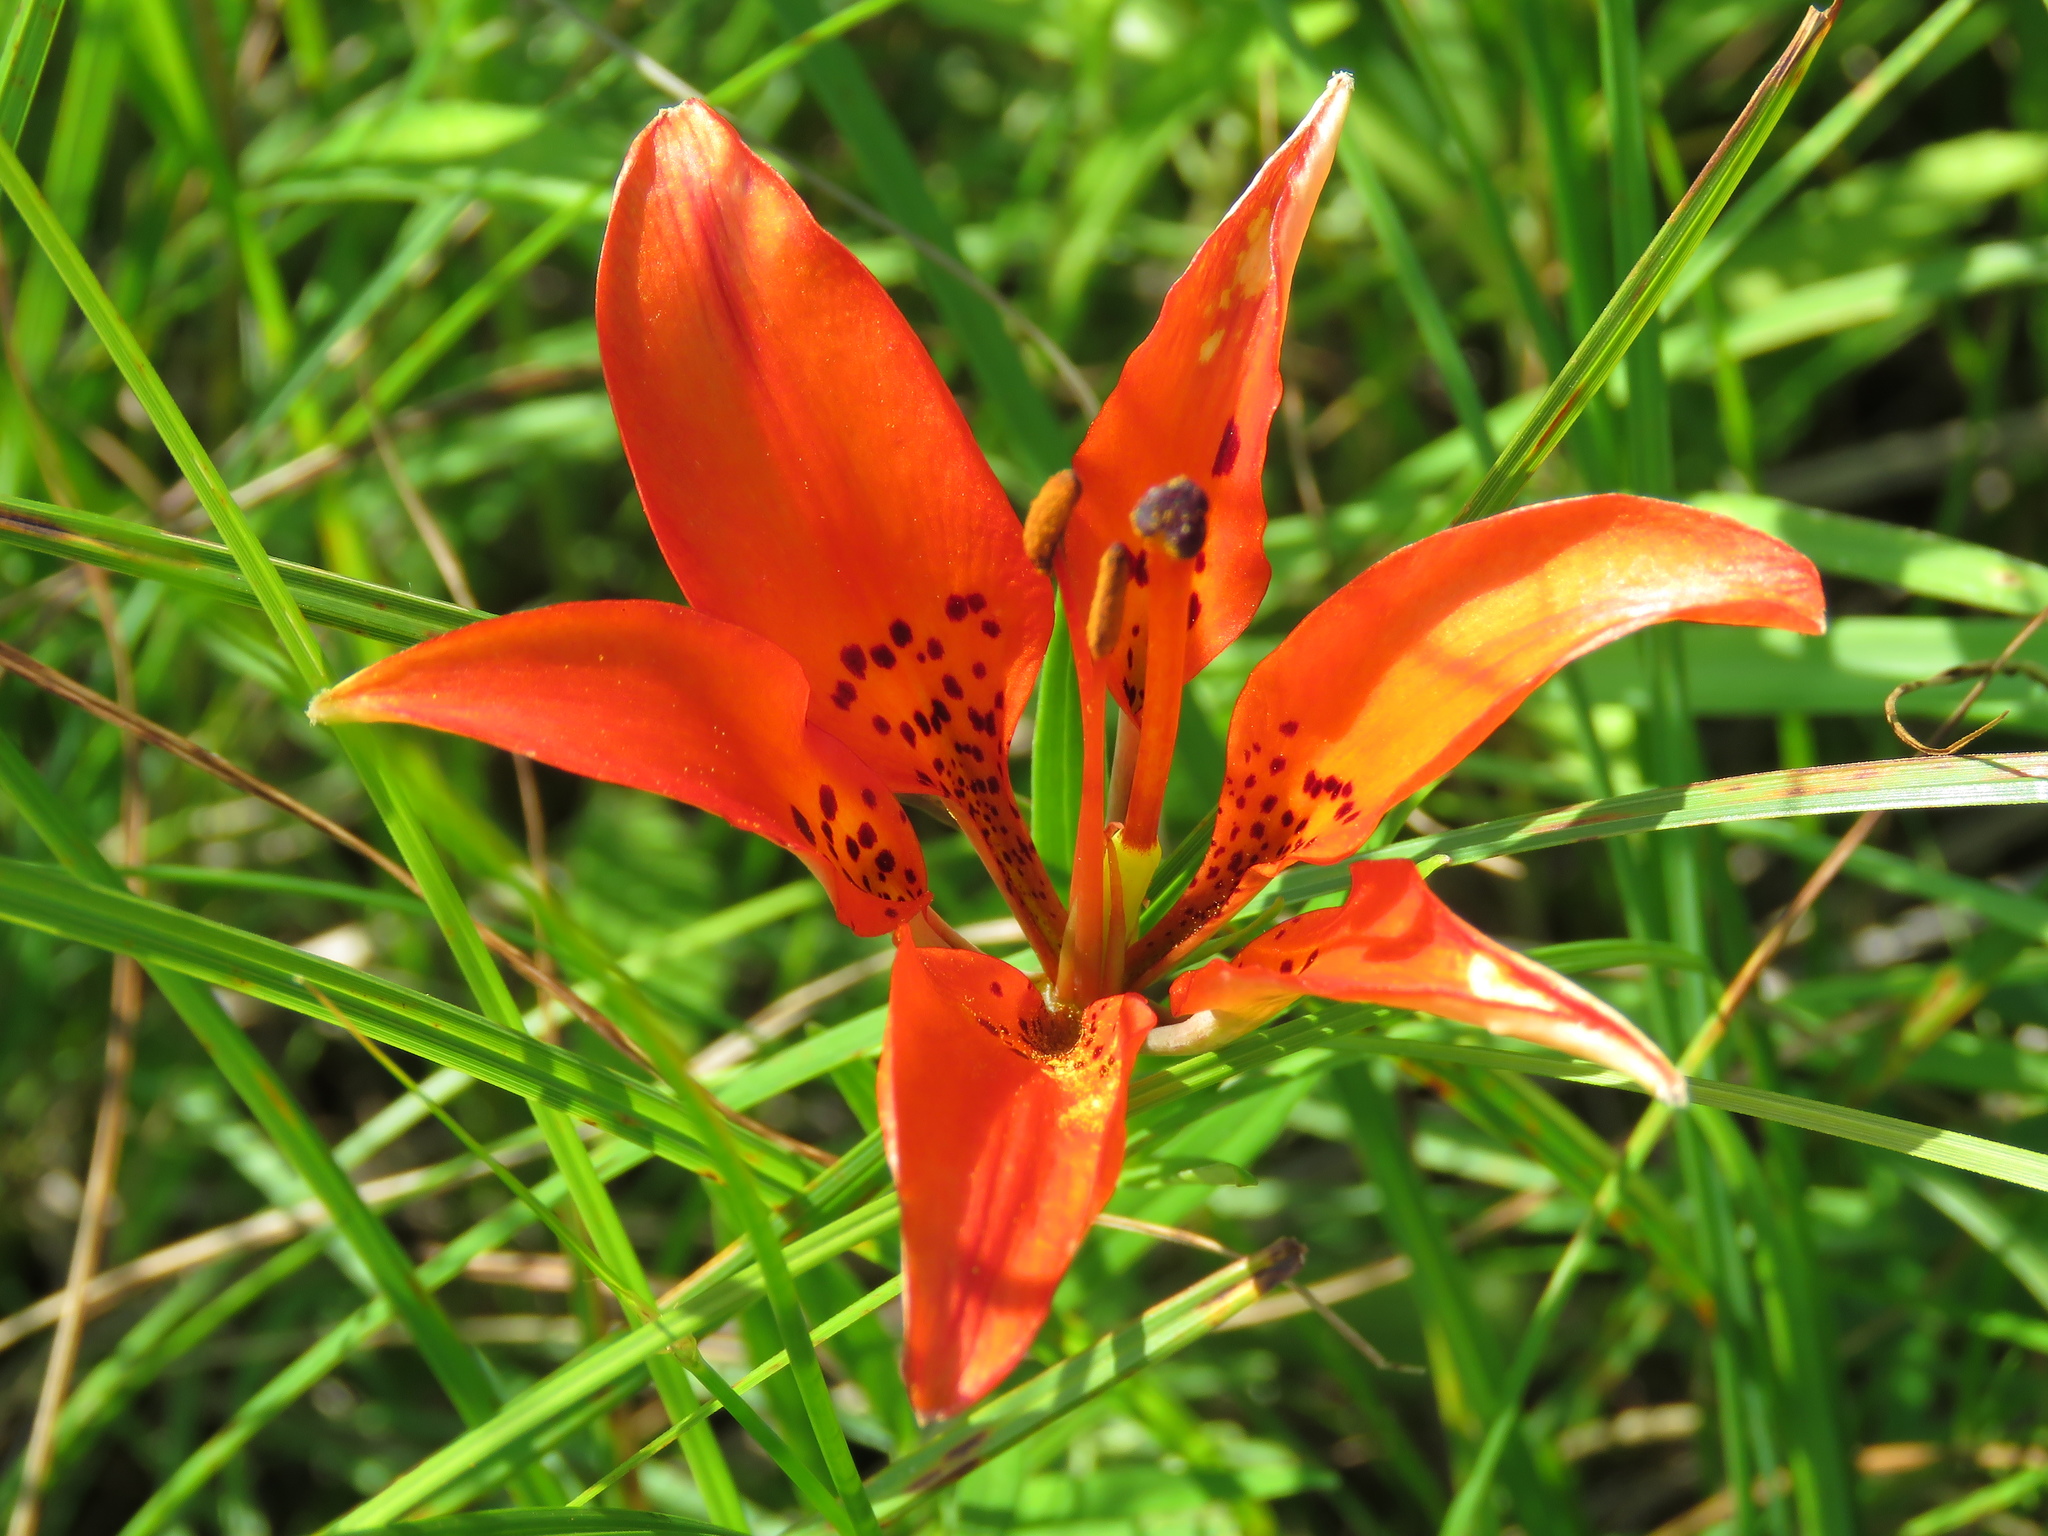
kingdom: Plantae
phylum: Tracheophyta
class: Liliopsida
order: Liliales
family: Liliaceae
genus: Lilium
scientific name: Lilium philadelphicum
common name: Red lily
